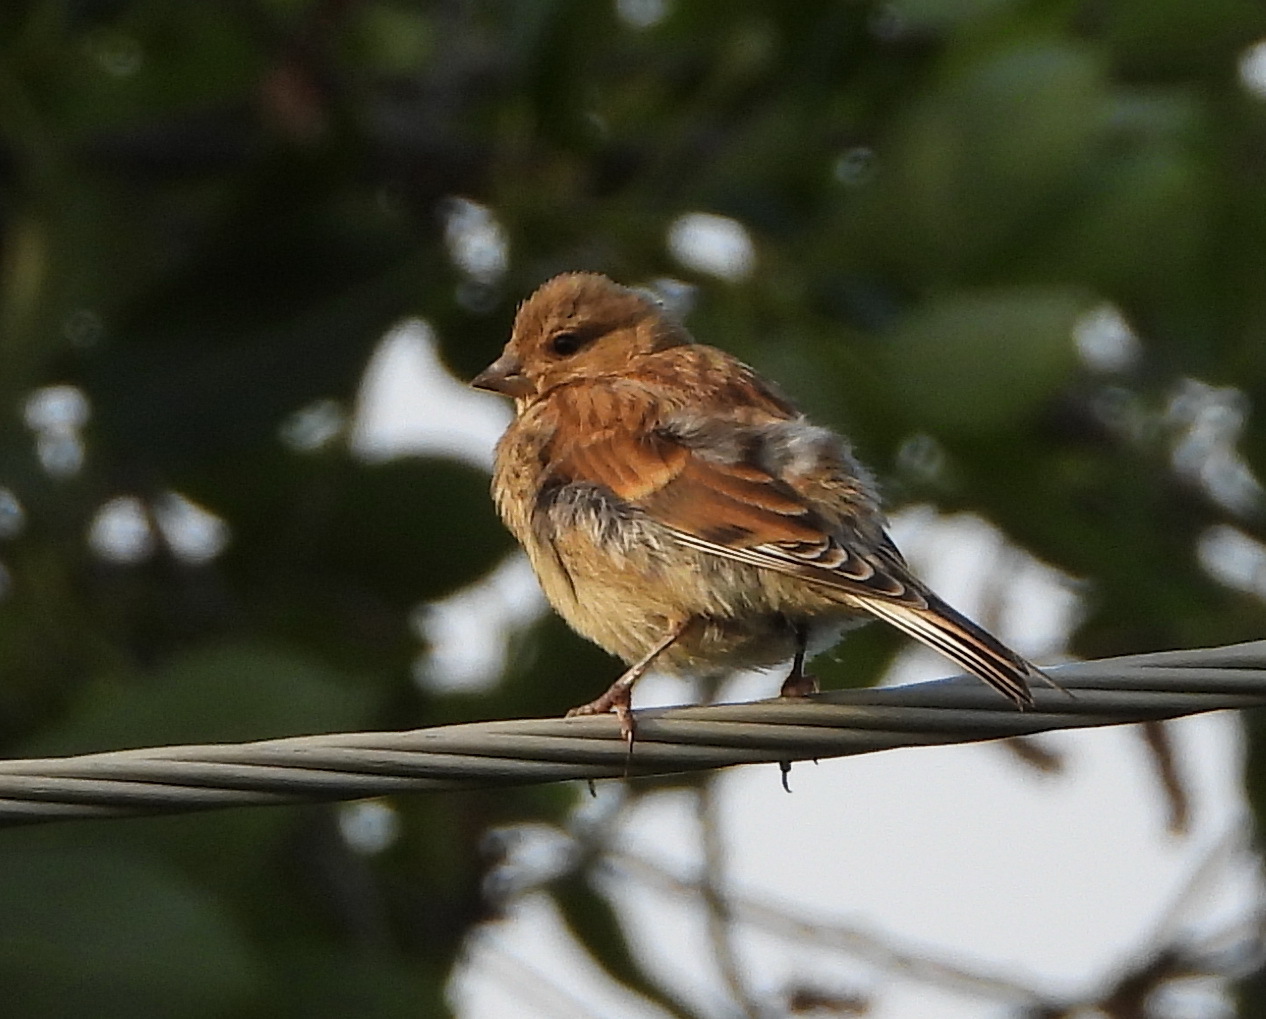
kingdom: Animalia
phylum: Chordata
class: Aves
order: Passeriformes
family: Fringillidae
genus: Linaria
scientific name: Linaria cannabina
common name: Common linnet
